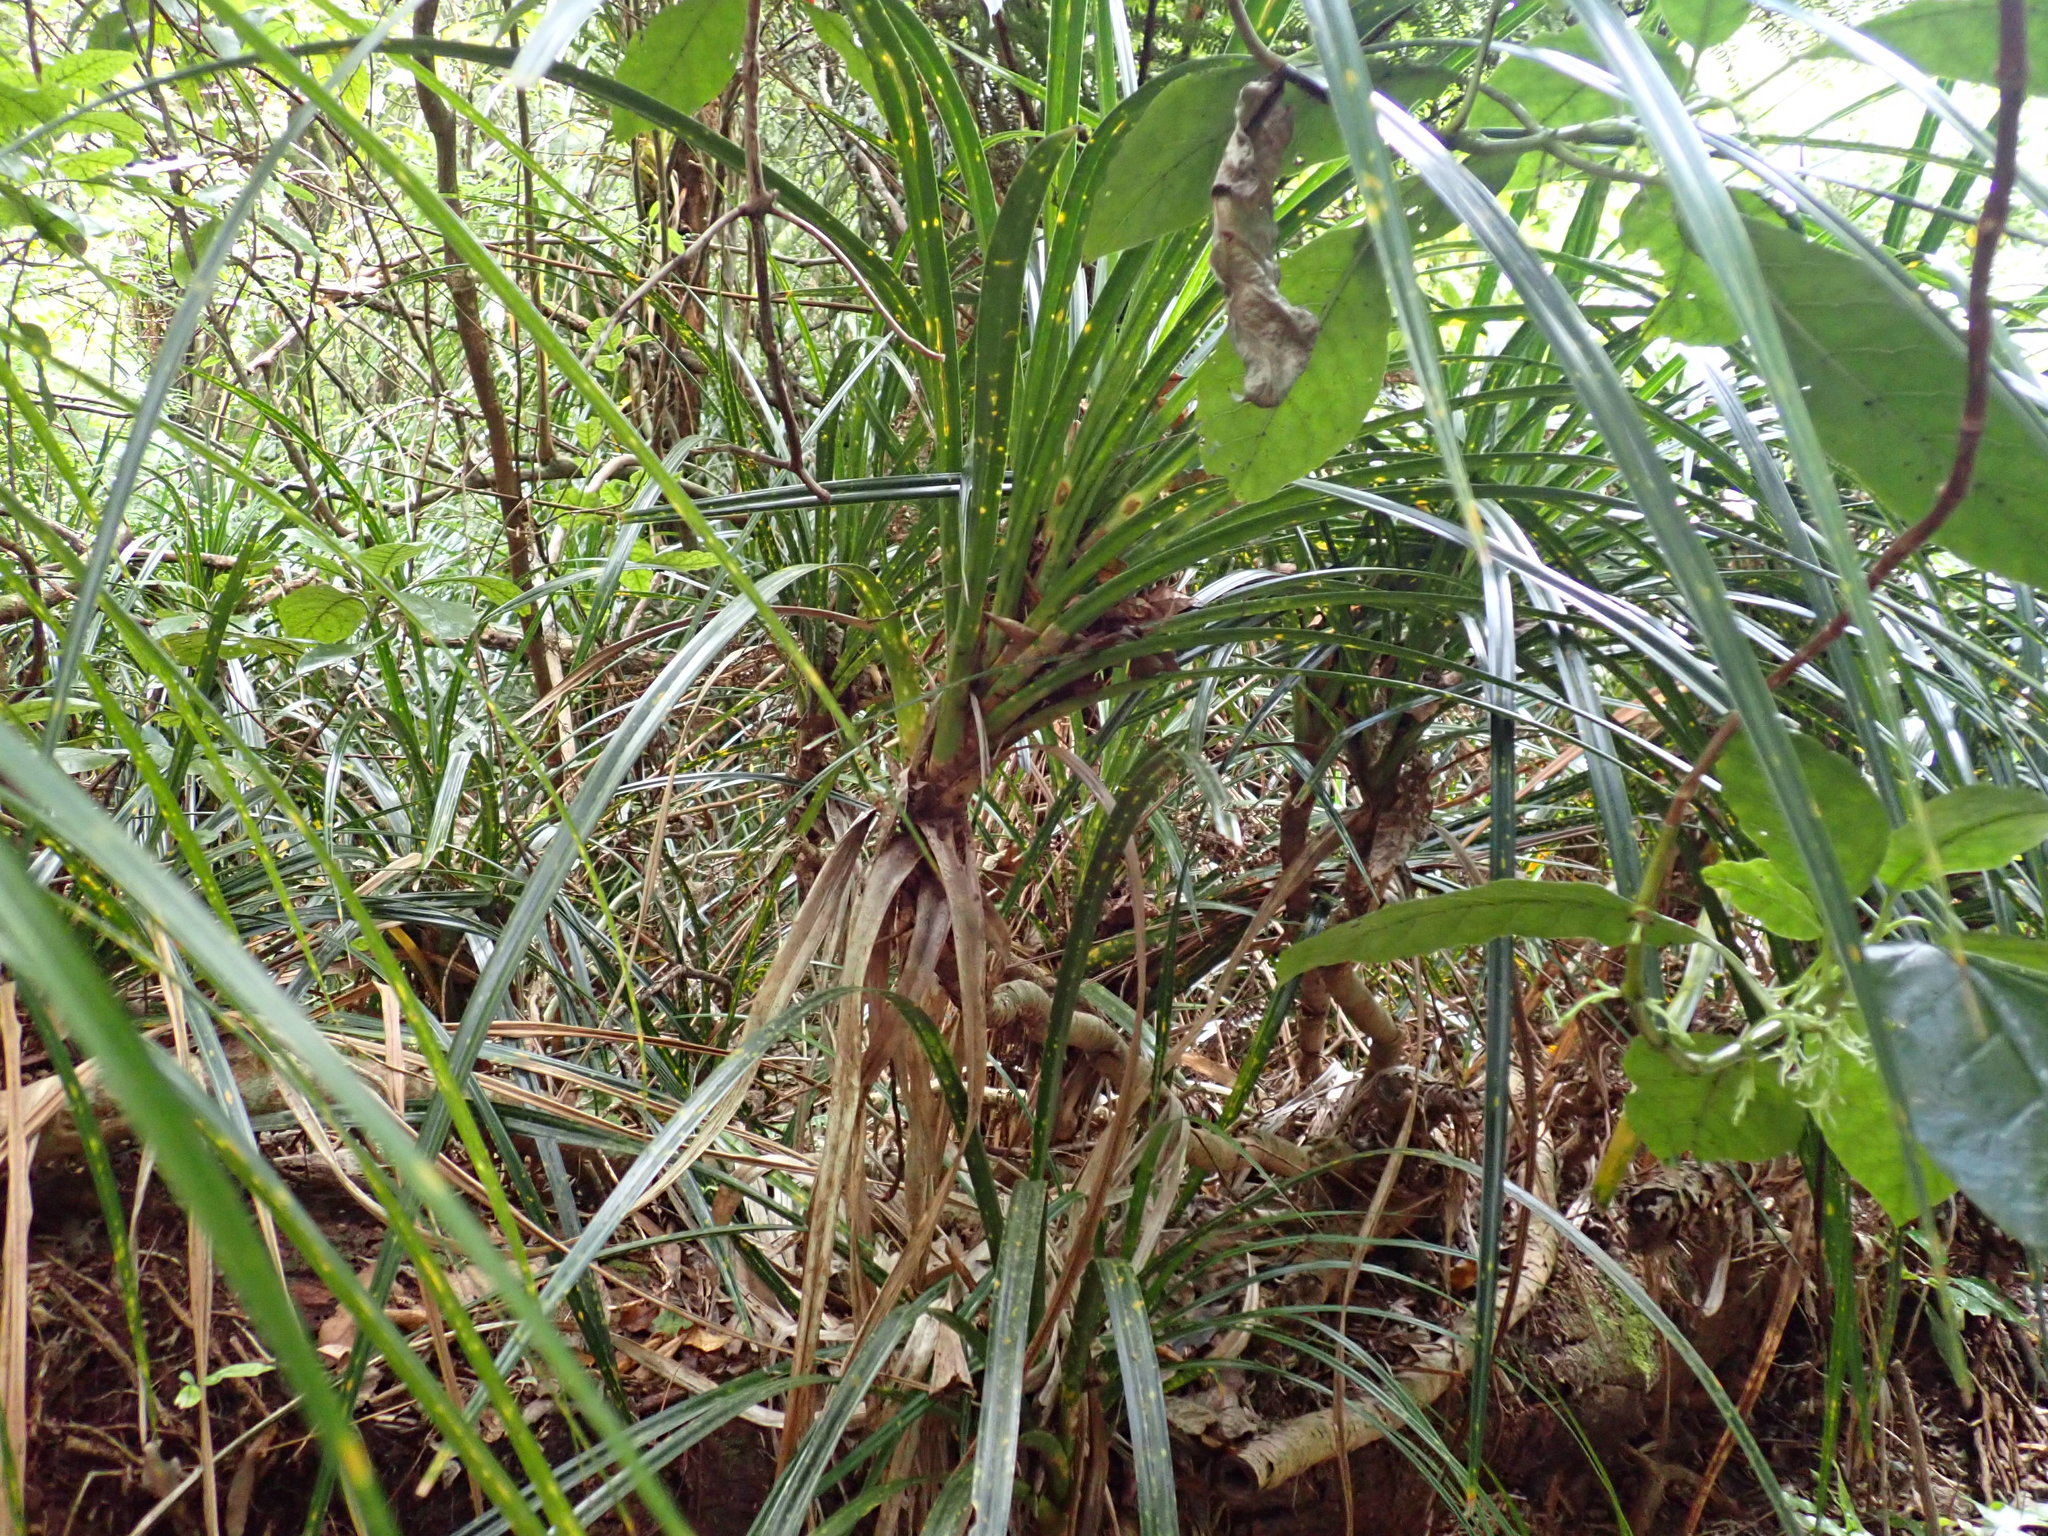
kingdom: Plantae
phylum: Tracheophyta
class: Liliopsida
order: Pandanales
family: Pandanaceae
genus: Freycinetia
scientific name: Freycinetia banksii
